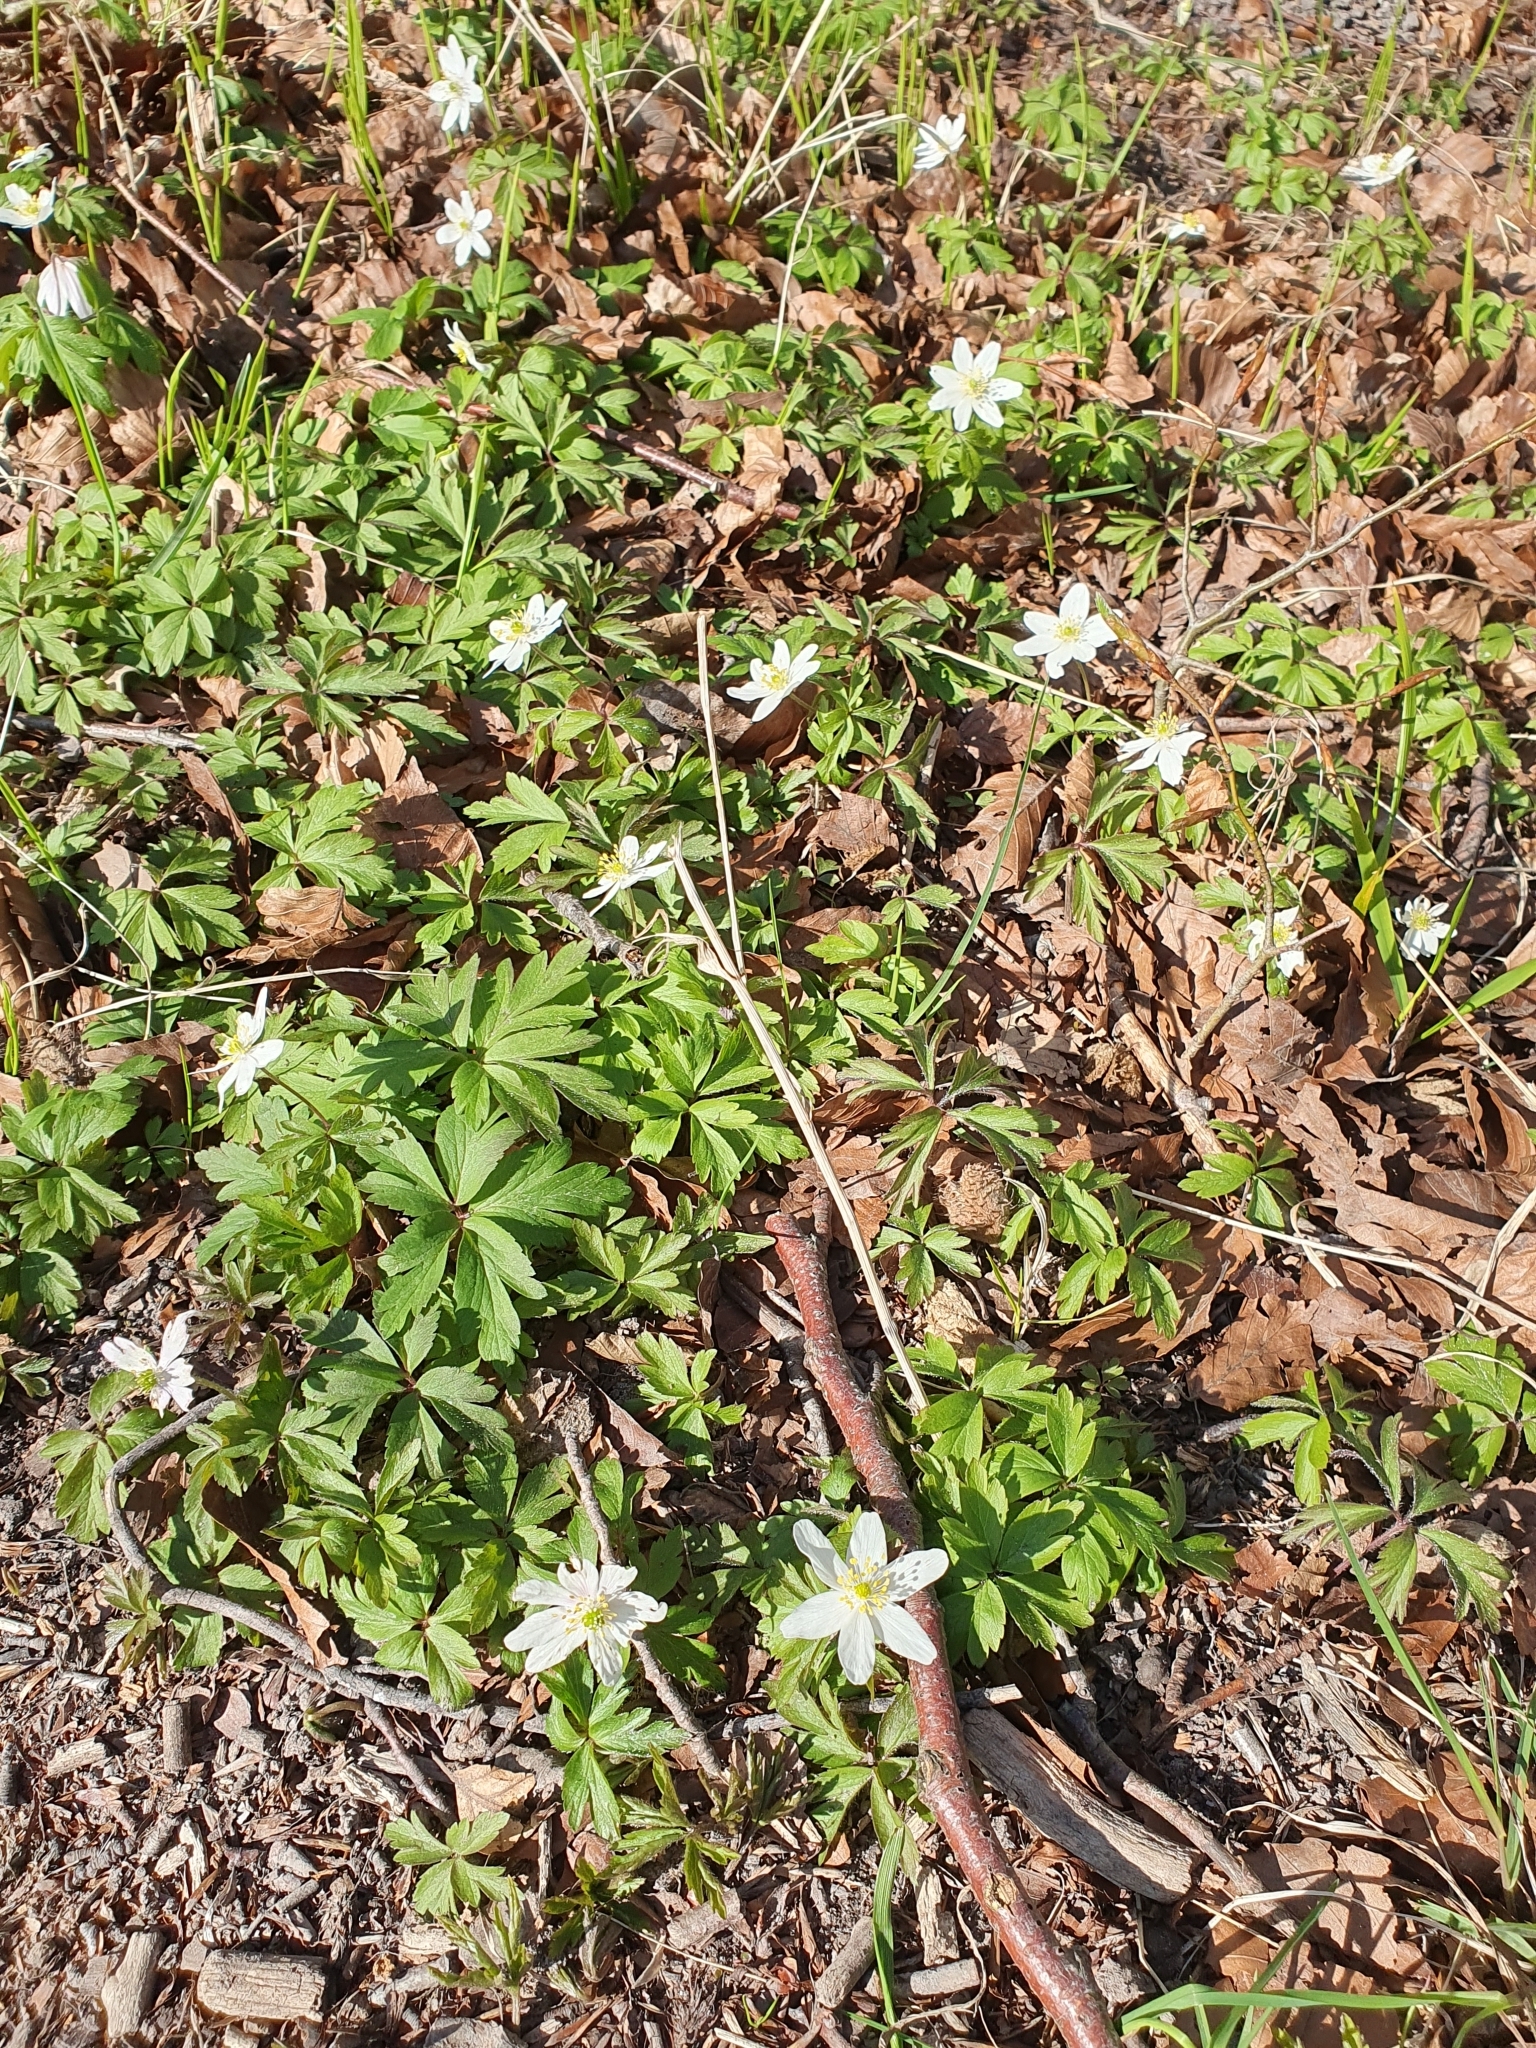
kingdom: Plantae
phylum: Tracheophyta
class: Magnoliopsida
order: Ranunculales
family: Ranunculaceae
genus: Anemone
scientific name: Anemone nemorosa
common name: Wood anemone
